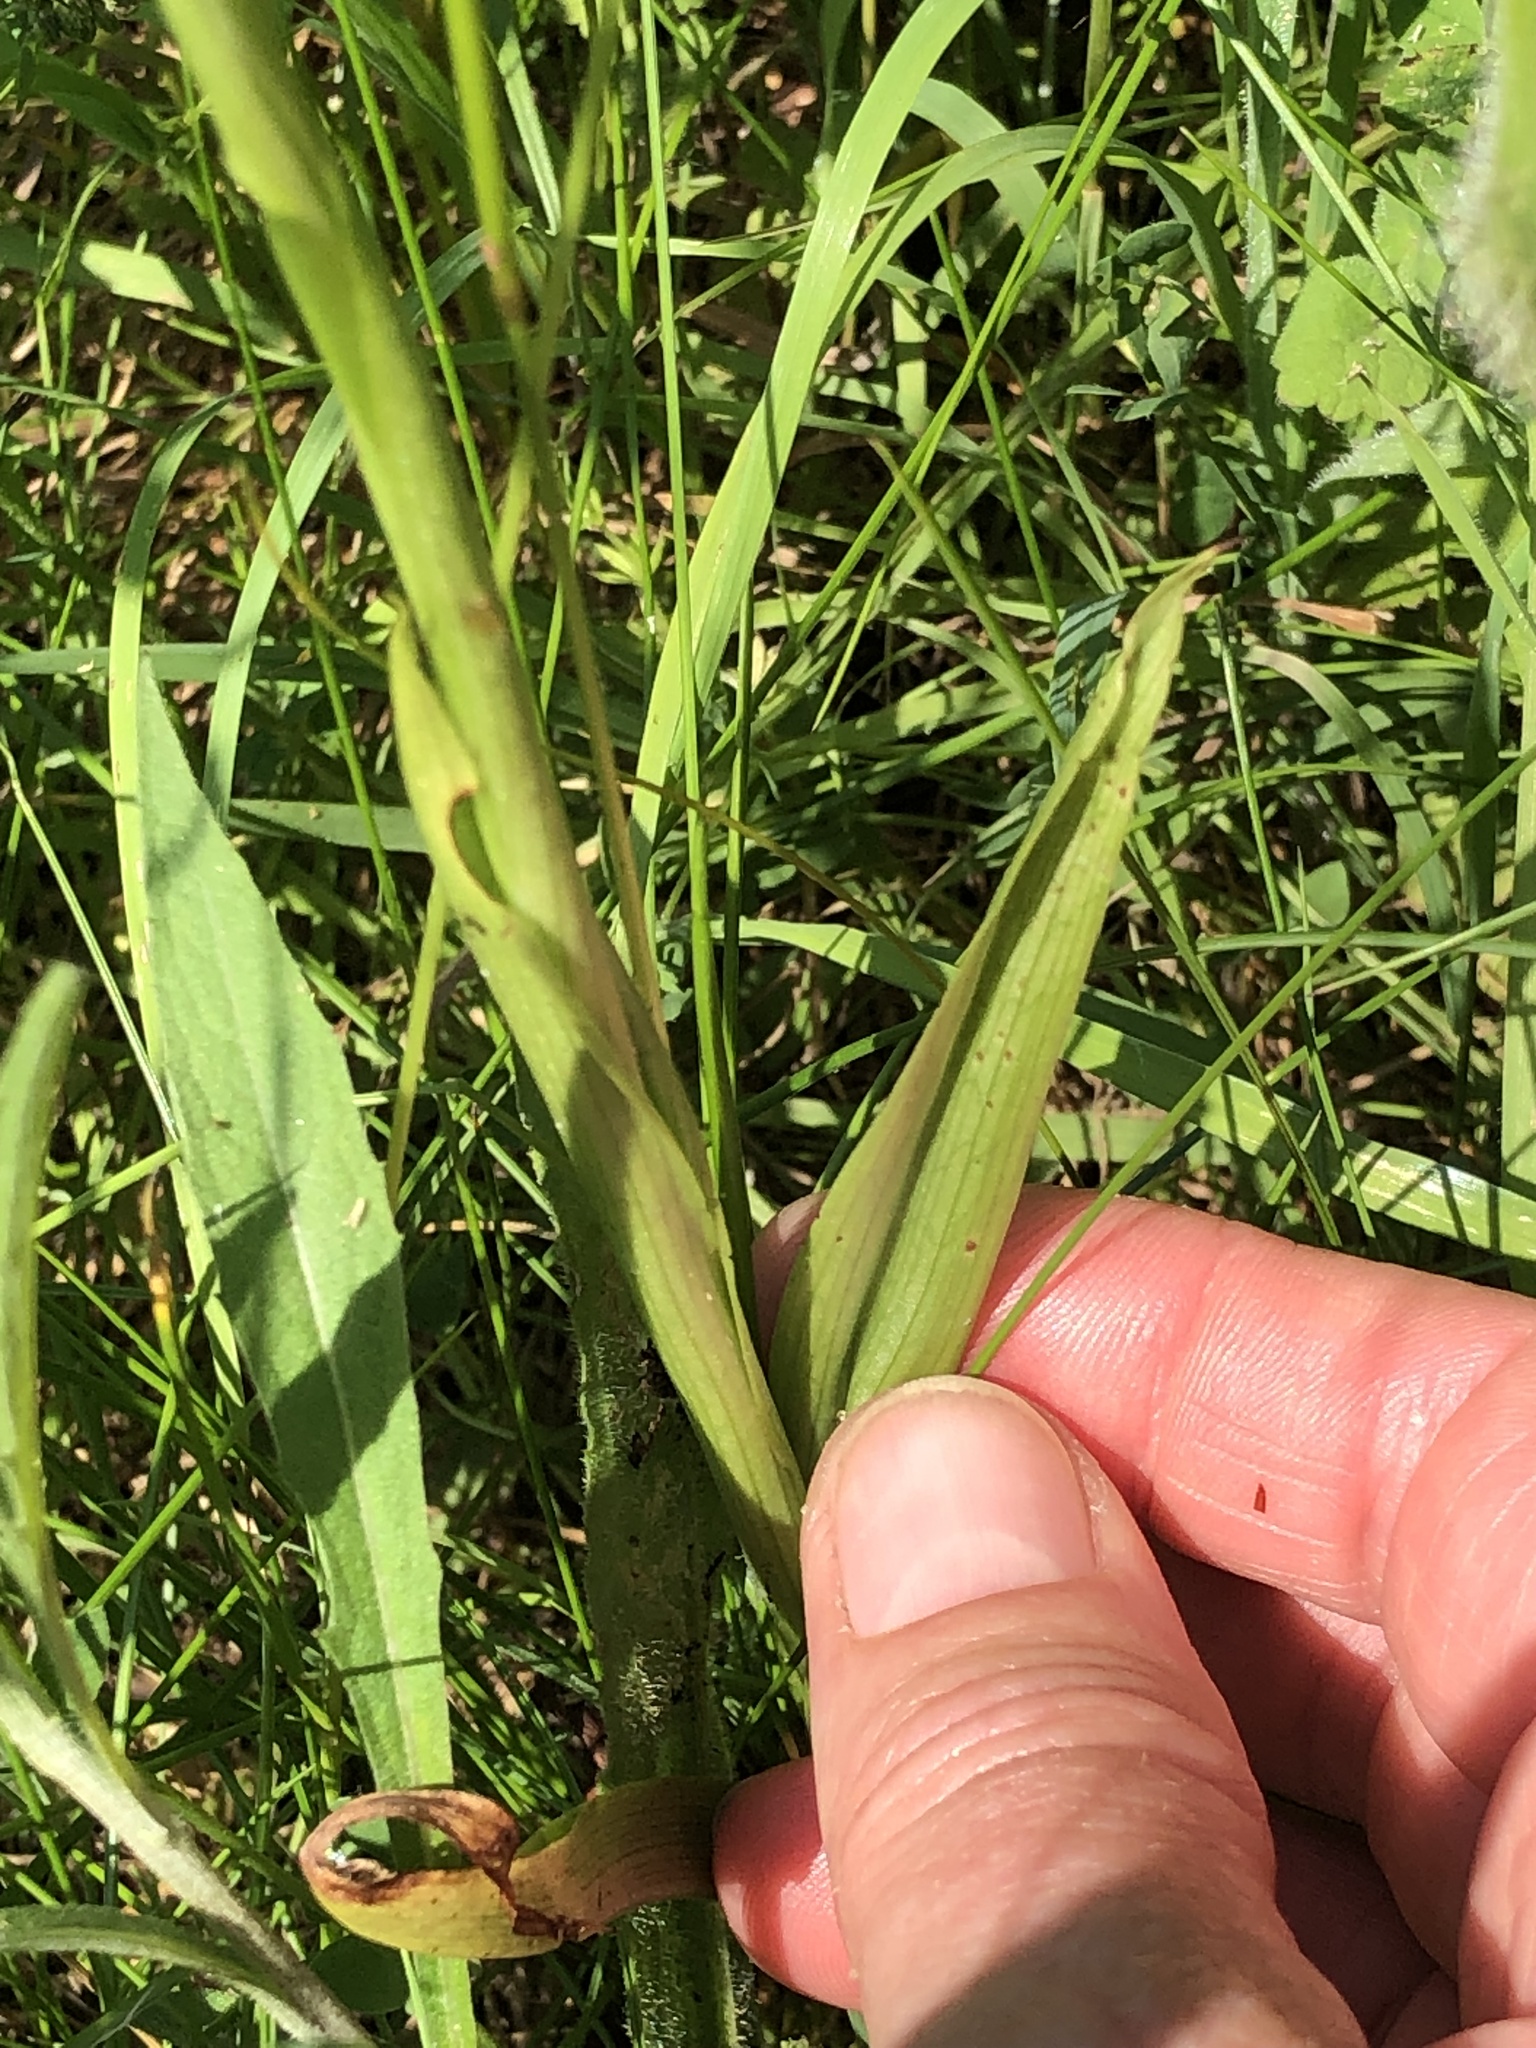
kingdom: Plantae
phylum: Tracheophyta
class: Liliopsida
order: Asparagales
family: Orchidaceae
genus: Anacamptis
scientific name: Anacamptis pyramidalis
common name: Pyramidal orchid
